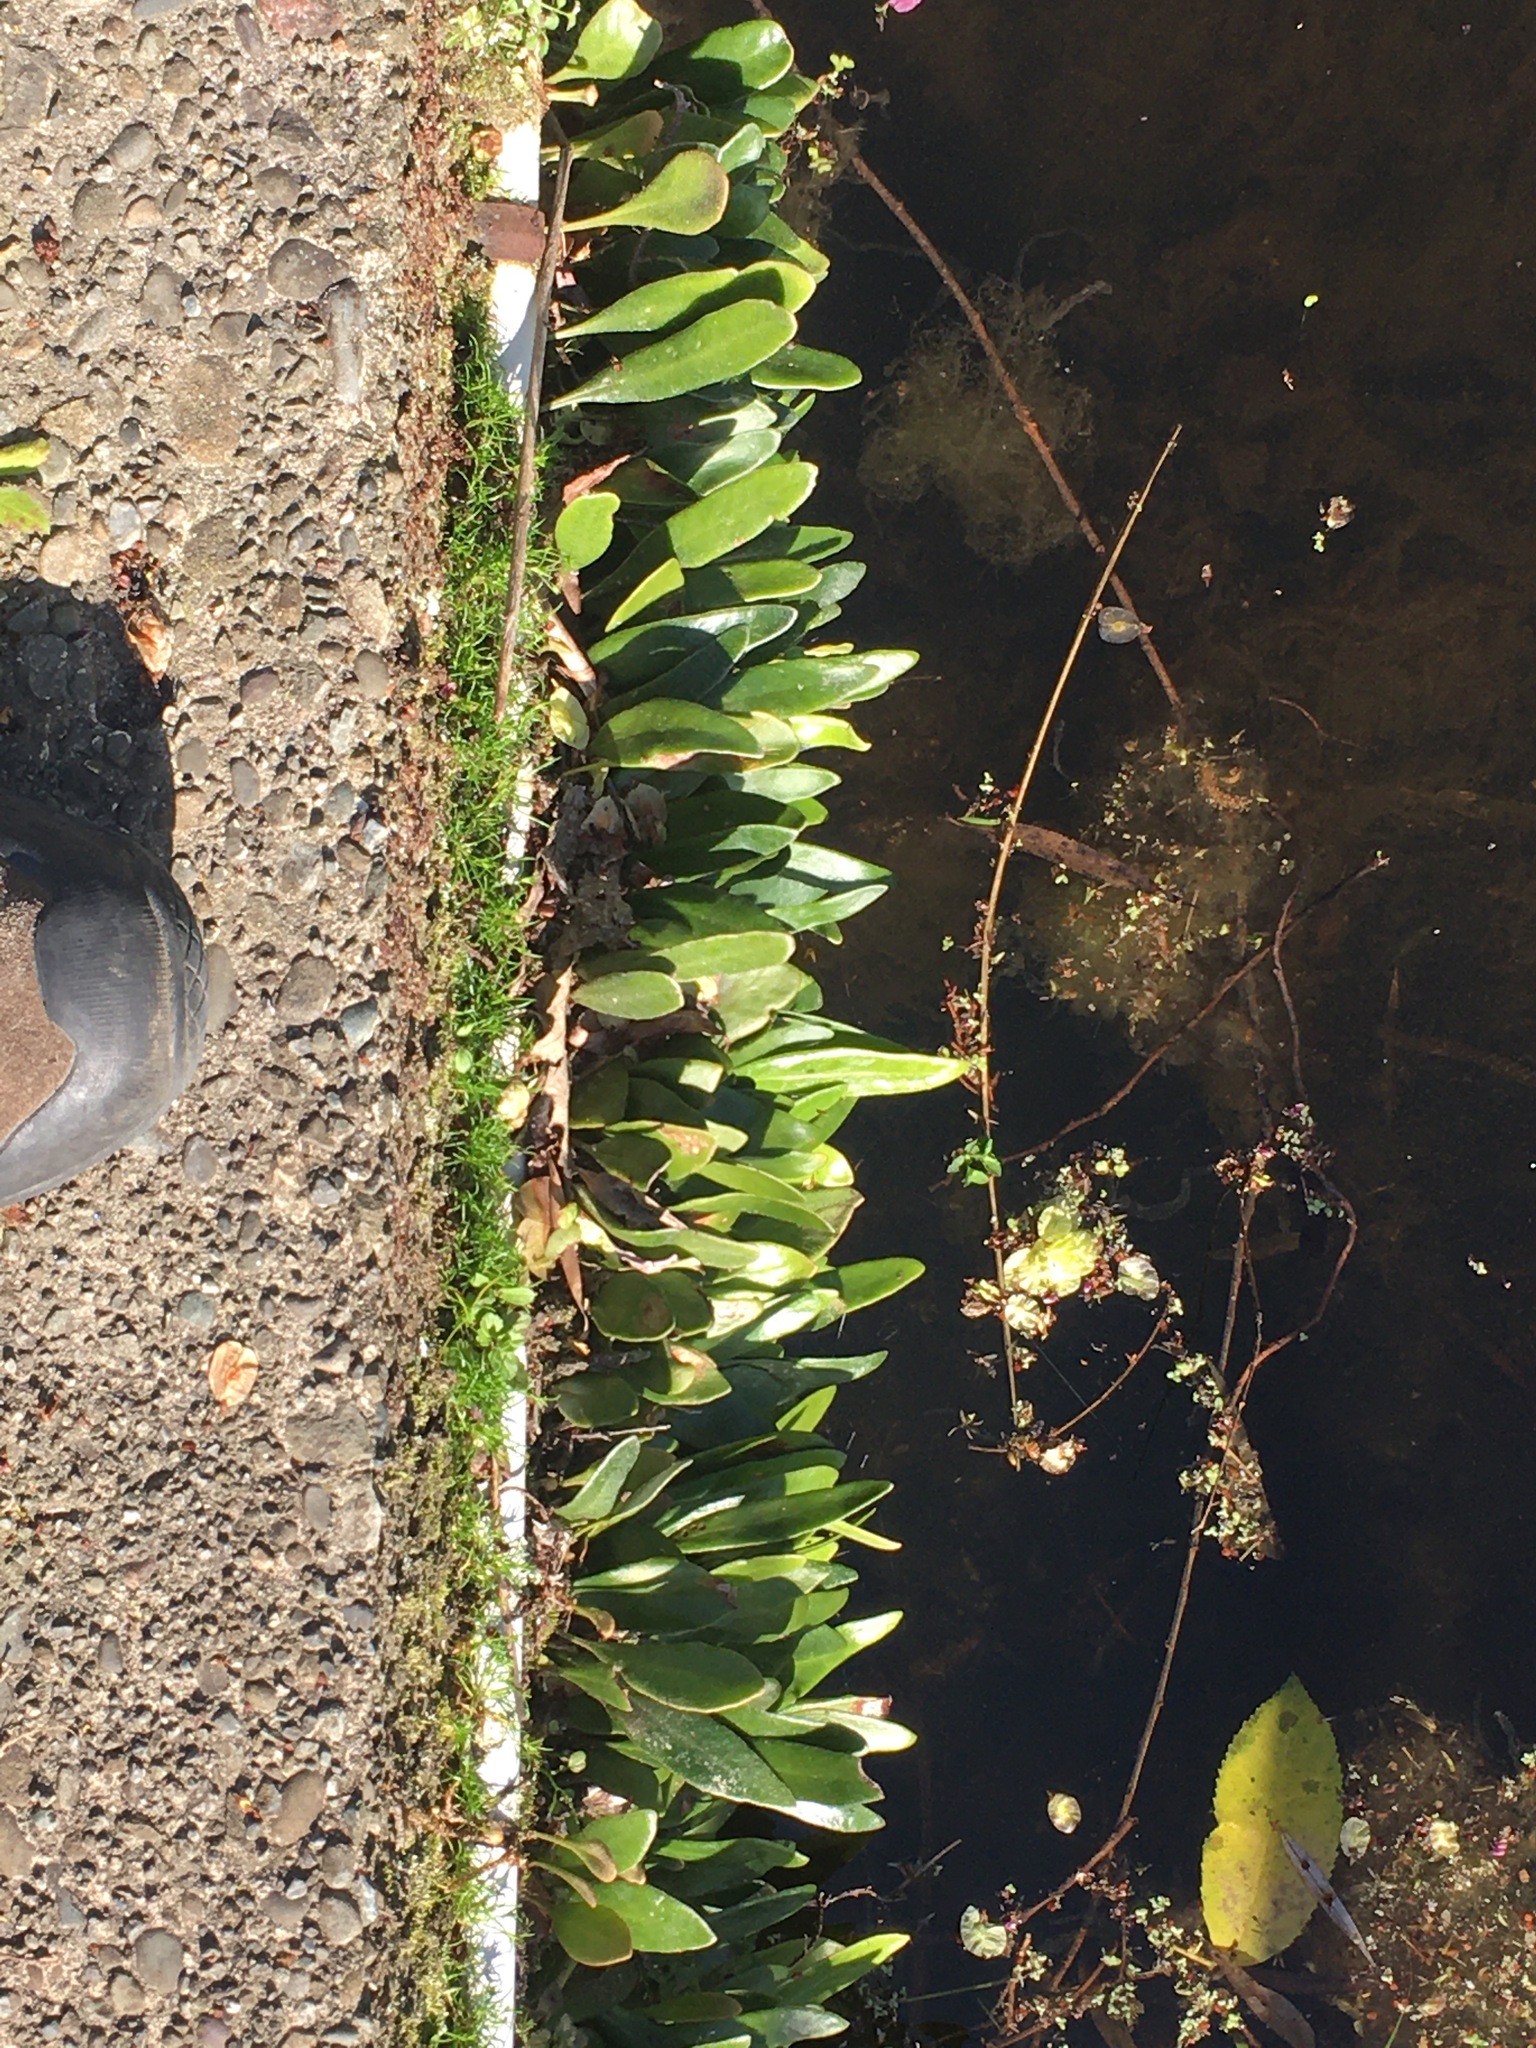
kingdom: Plantae
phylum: Tracheophyta
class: Polypodiopsida
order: Polypodiales
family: Polypodiaceae
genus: Pyrrosia
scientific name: Pyrrosia eleagnifolia
